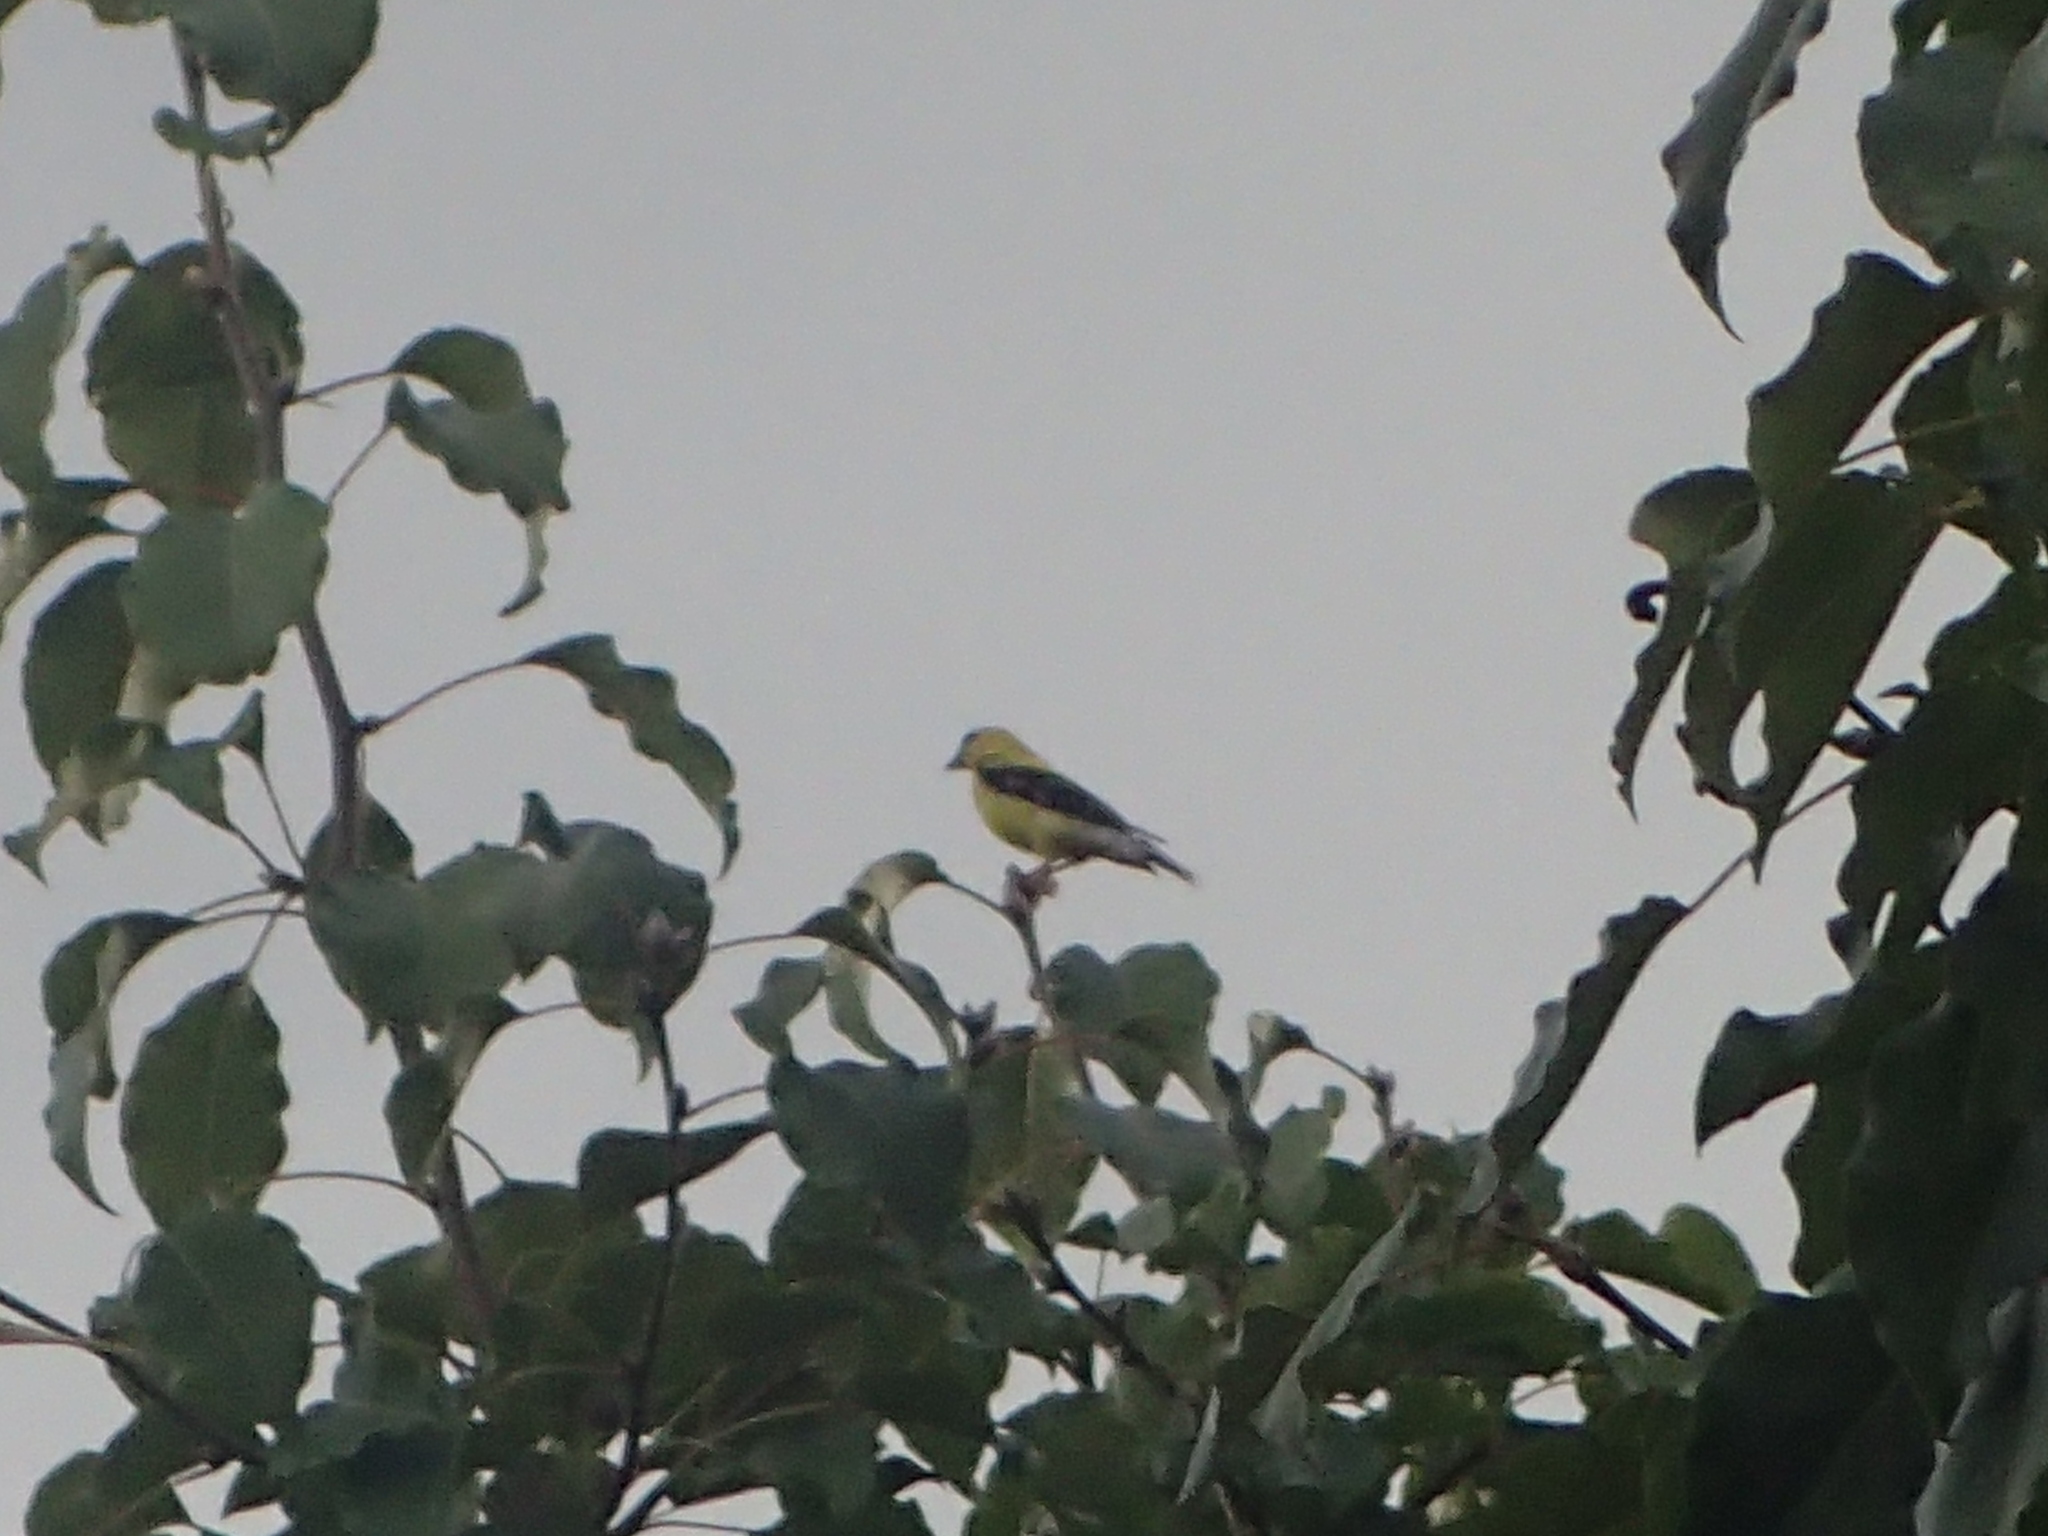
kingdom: Animalia
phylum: Chordata
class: Aves
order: Passeriformes
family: Fringillidae
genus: Spinus
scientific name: Spinus tristis
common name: American goldfinch
